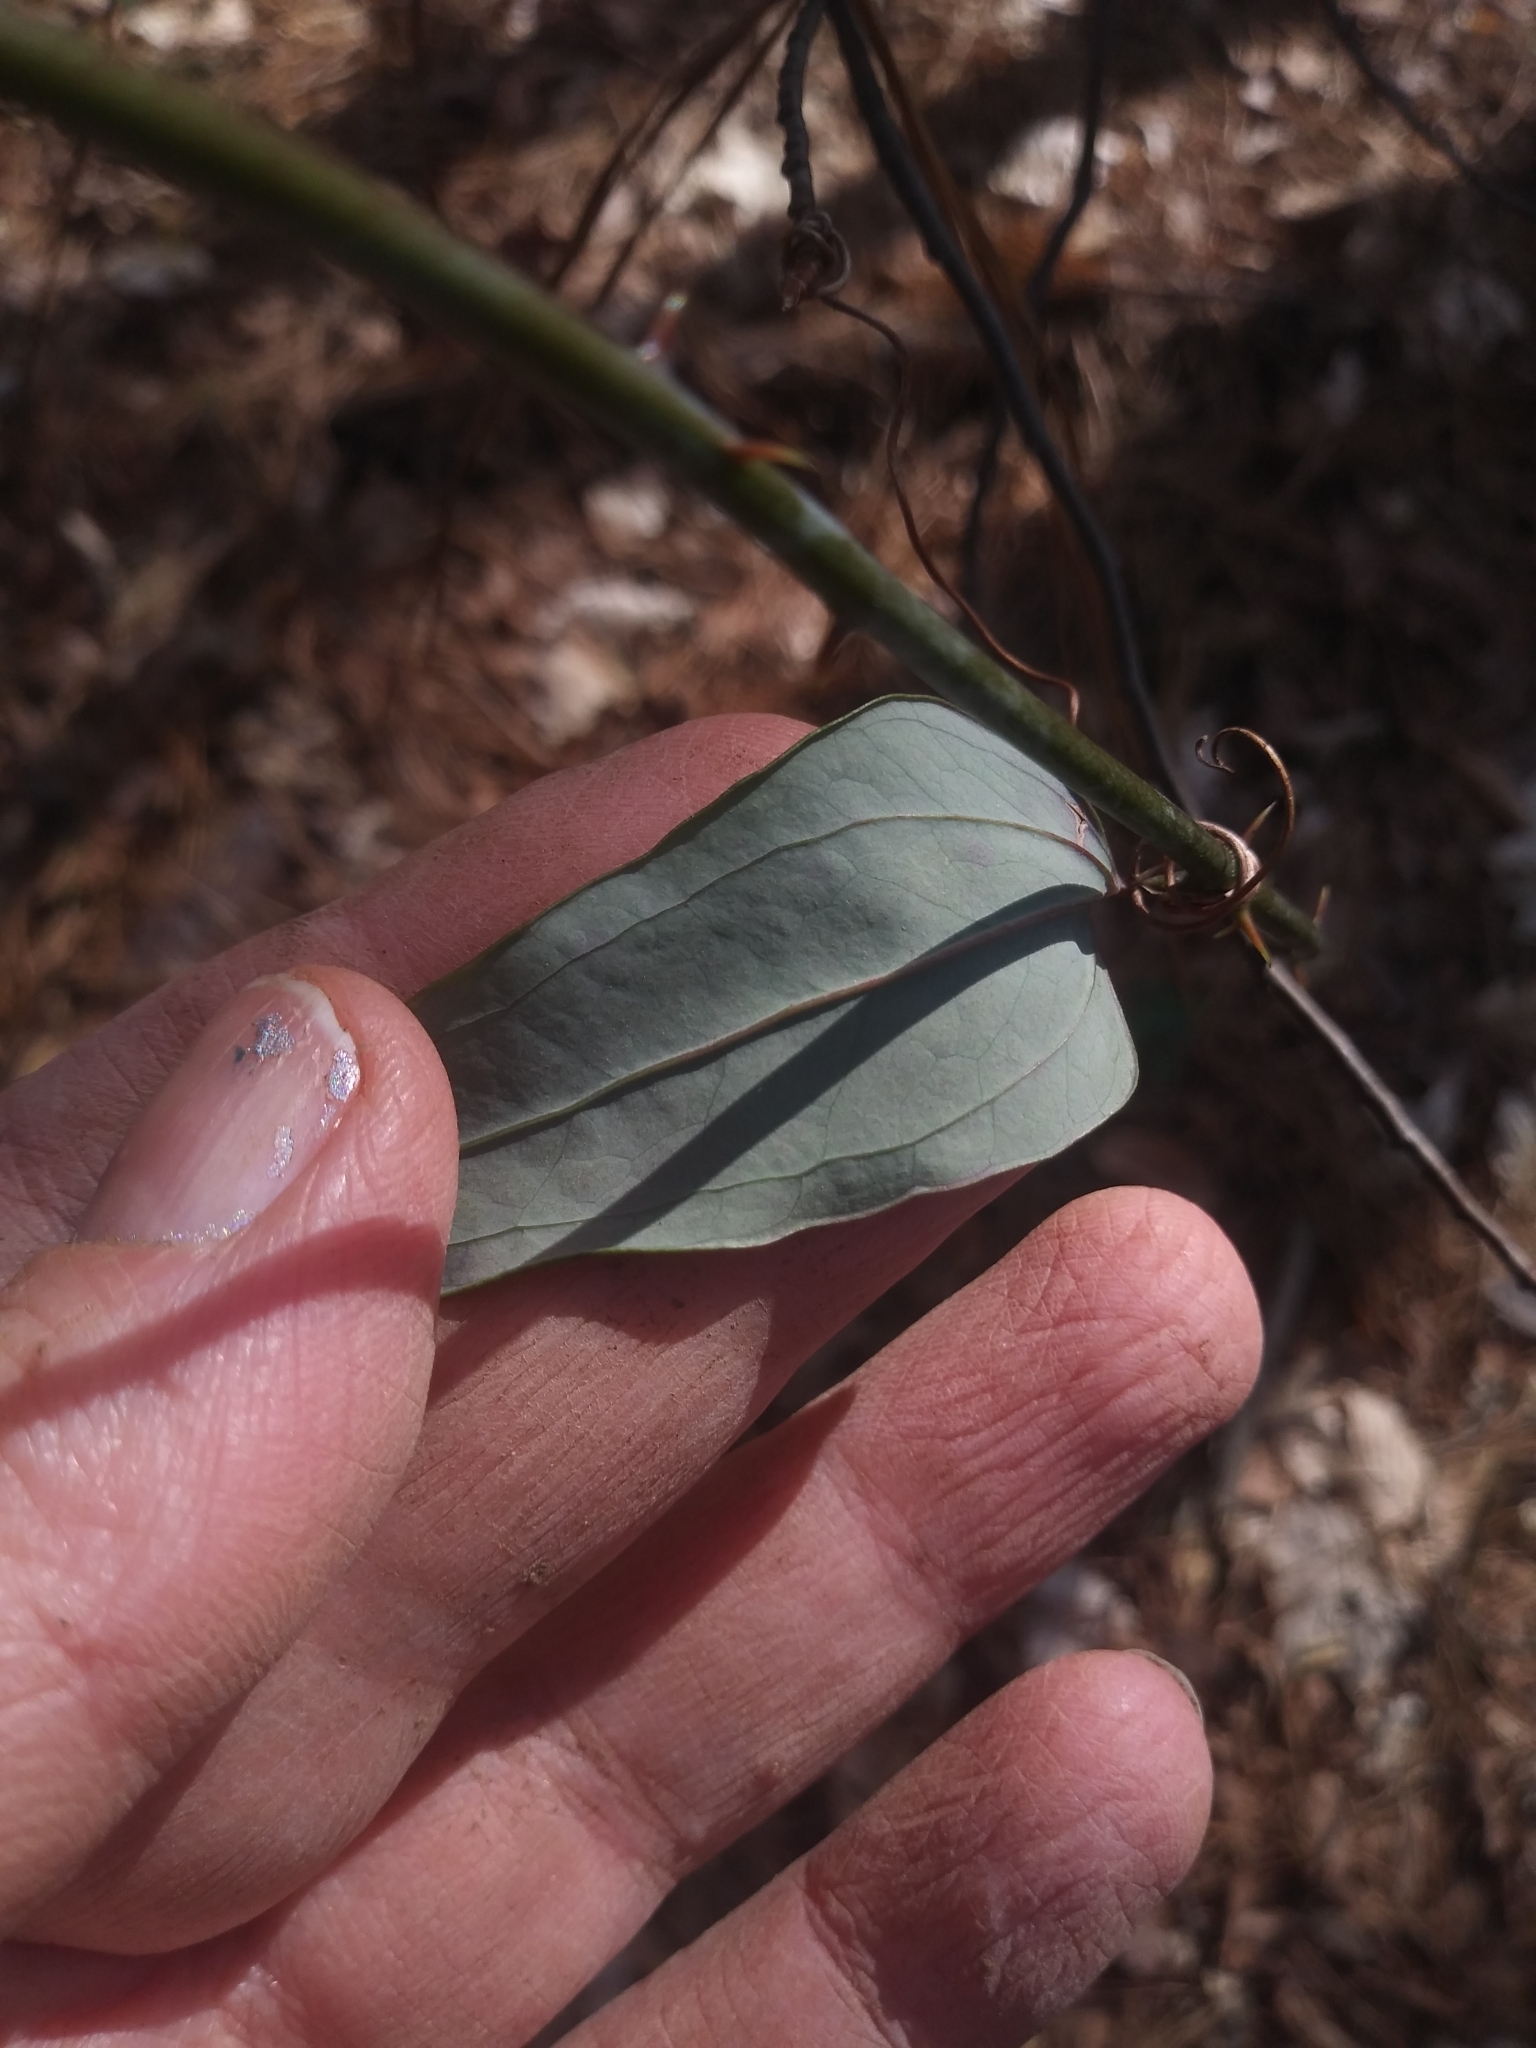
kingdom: Plantae
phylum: Tracheophyta
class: Liliopsida
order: Liliales
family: Smilacaceae
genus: Smilax
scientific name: Smilax glauca
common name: Cat greenbrier
